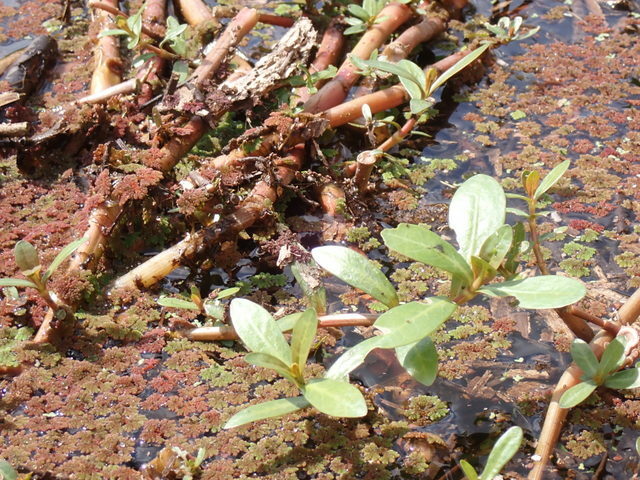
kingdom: Plantae
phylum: Tracheophyta
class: Magnoliopsida
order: Caryophyllales
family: Amaranthaceae
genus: Alternanthera
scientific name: Alternanthera philoxeroides
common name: Alligatorweed
